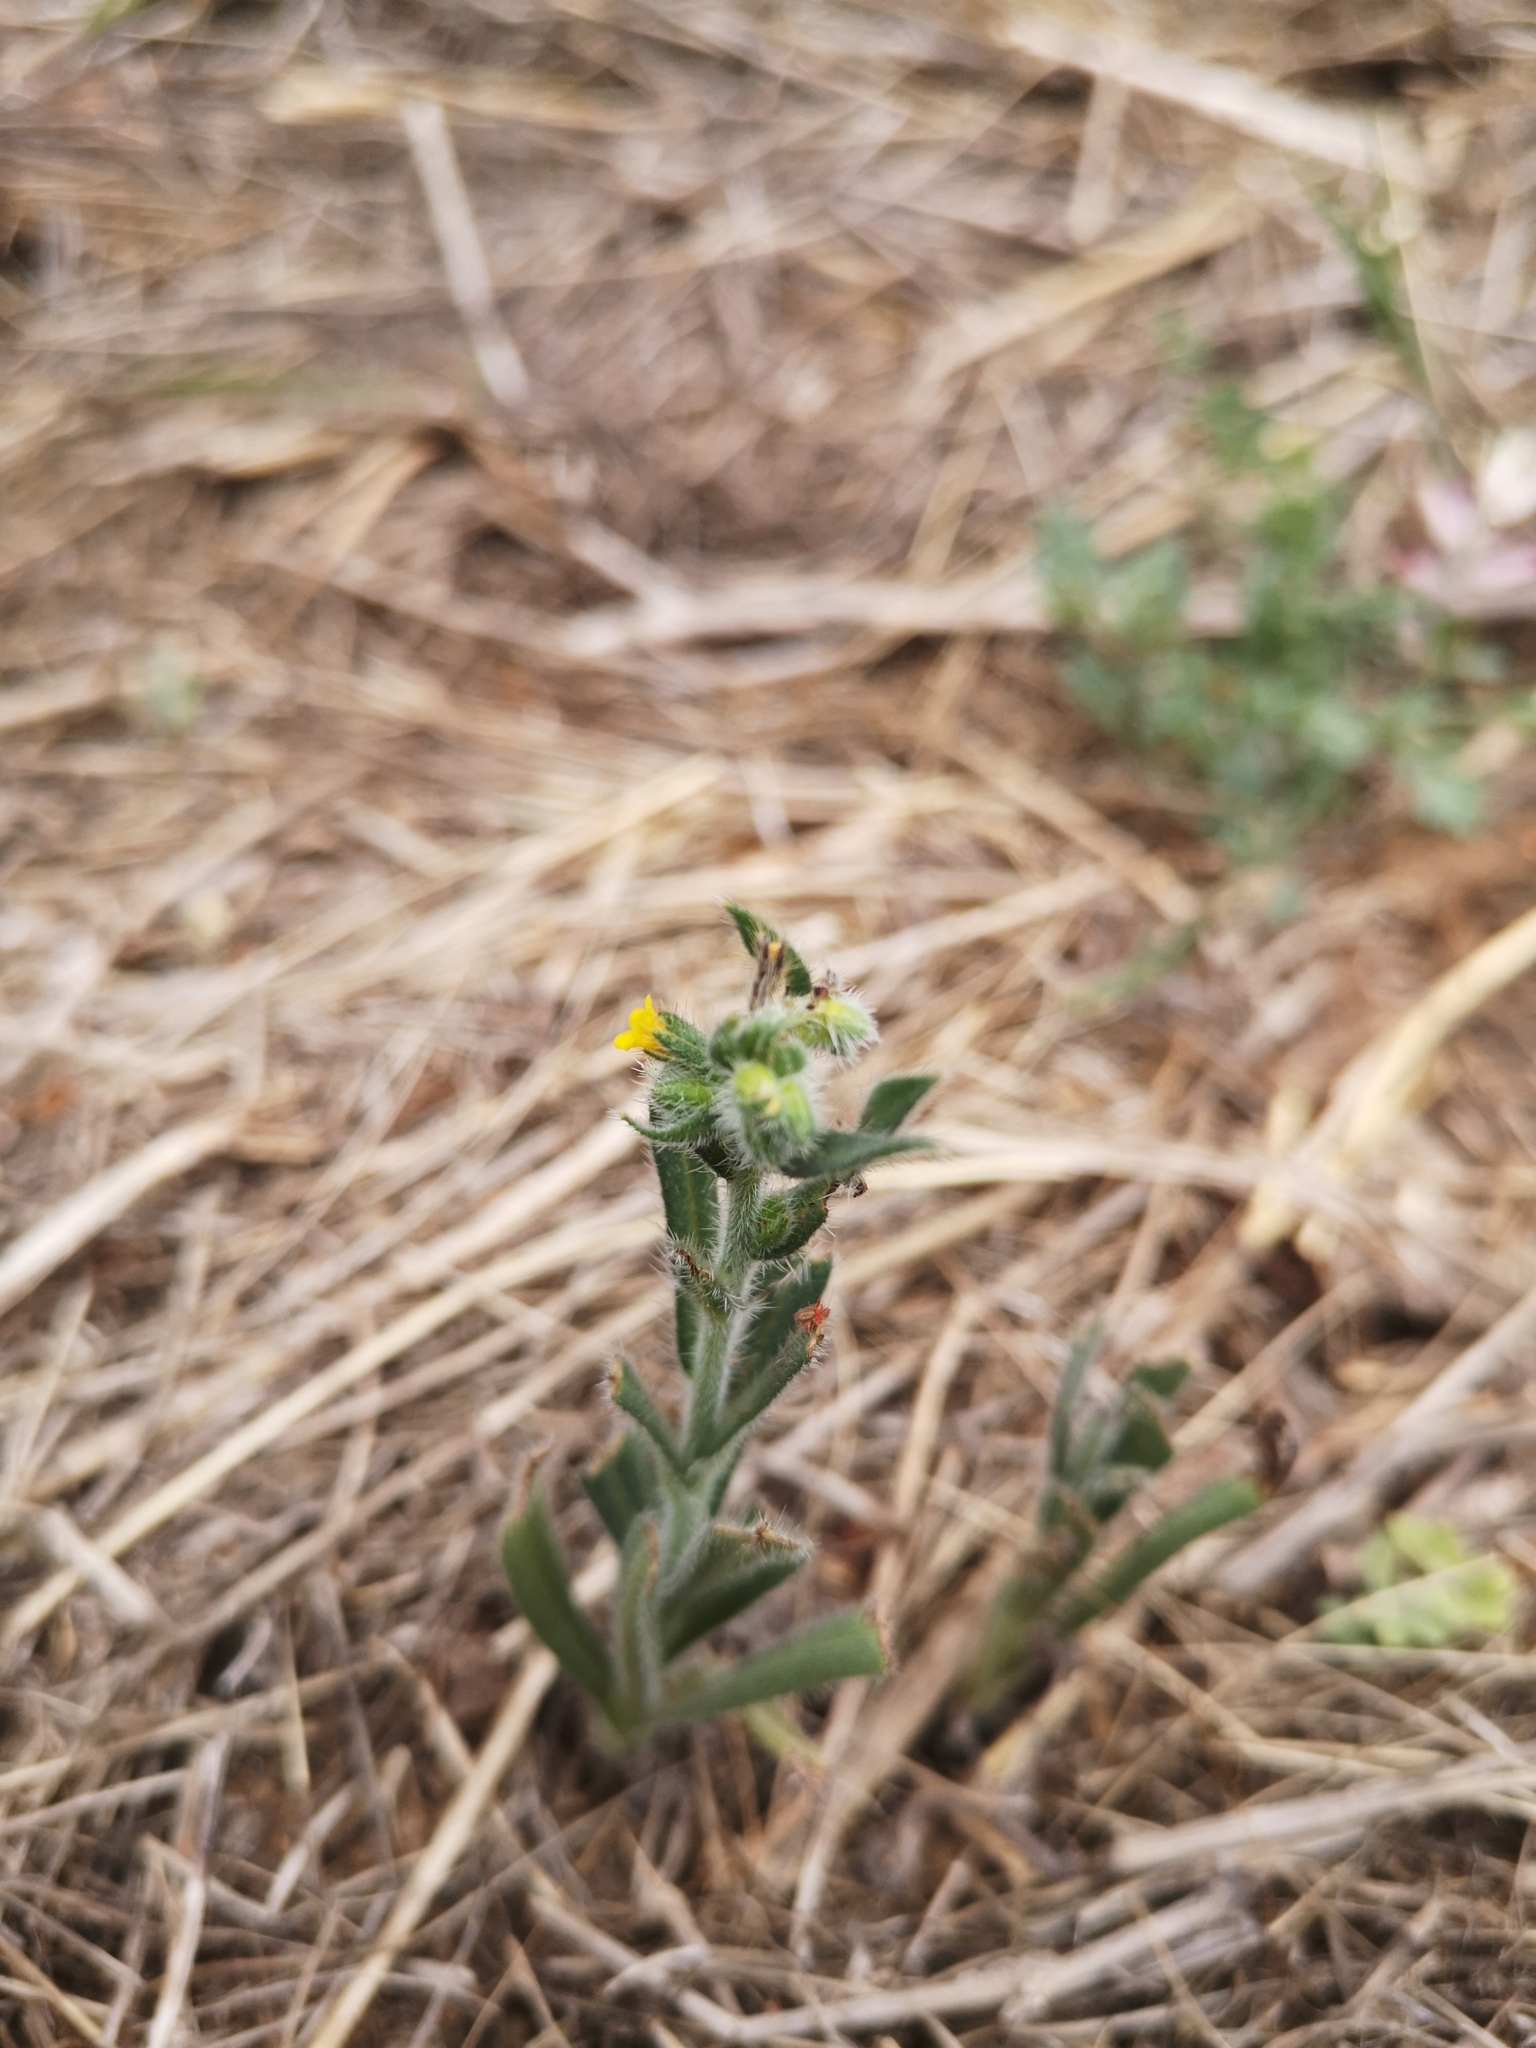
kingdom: Plantae
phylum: Tracheophyta
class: Magnoliopsida
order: Boraginales
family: Boraginaceae
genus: Amsinckia
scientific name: Amsinckia calycina
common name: Hairy fiddleneck
